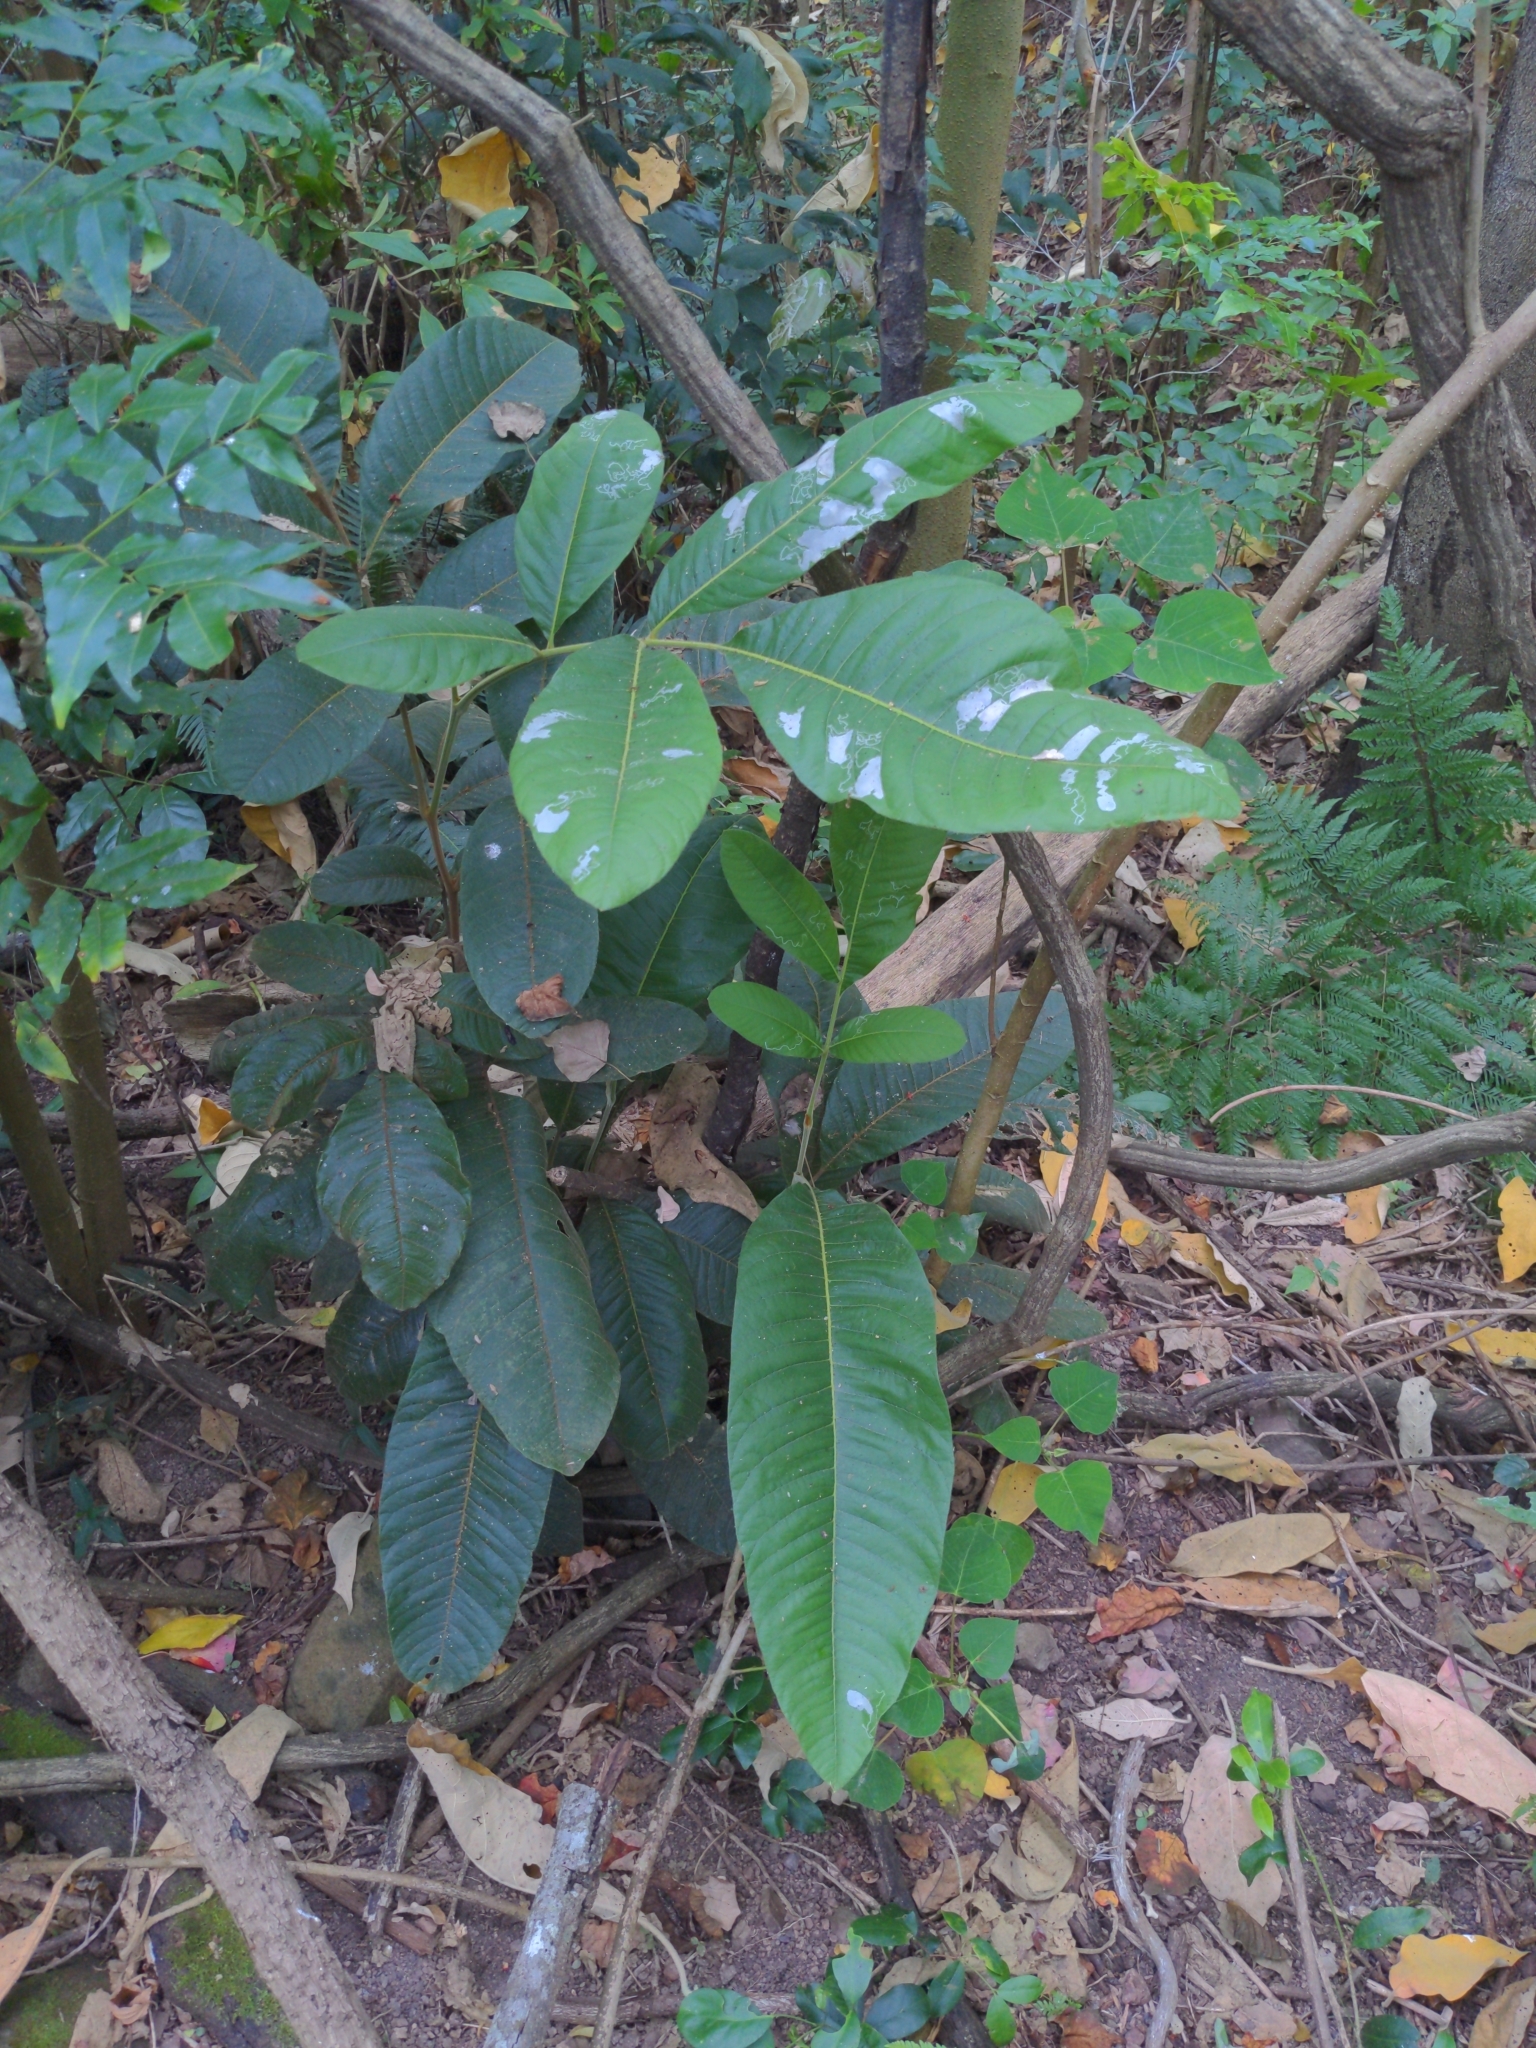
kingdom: Plantae
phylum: Tracheophyta
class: Magnoliopsida
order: Sapindales
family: Sapindaceae
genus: Diploglottis
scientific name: Diploglottis australis
